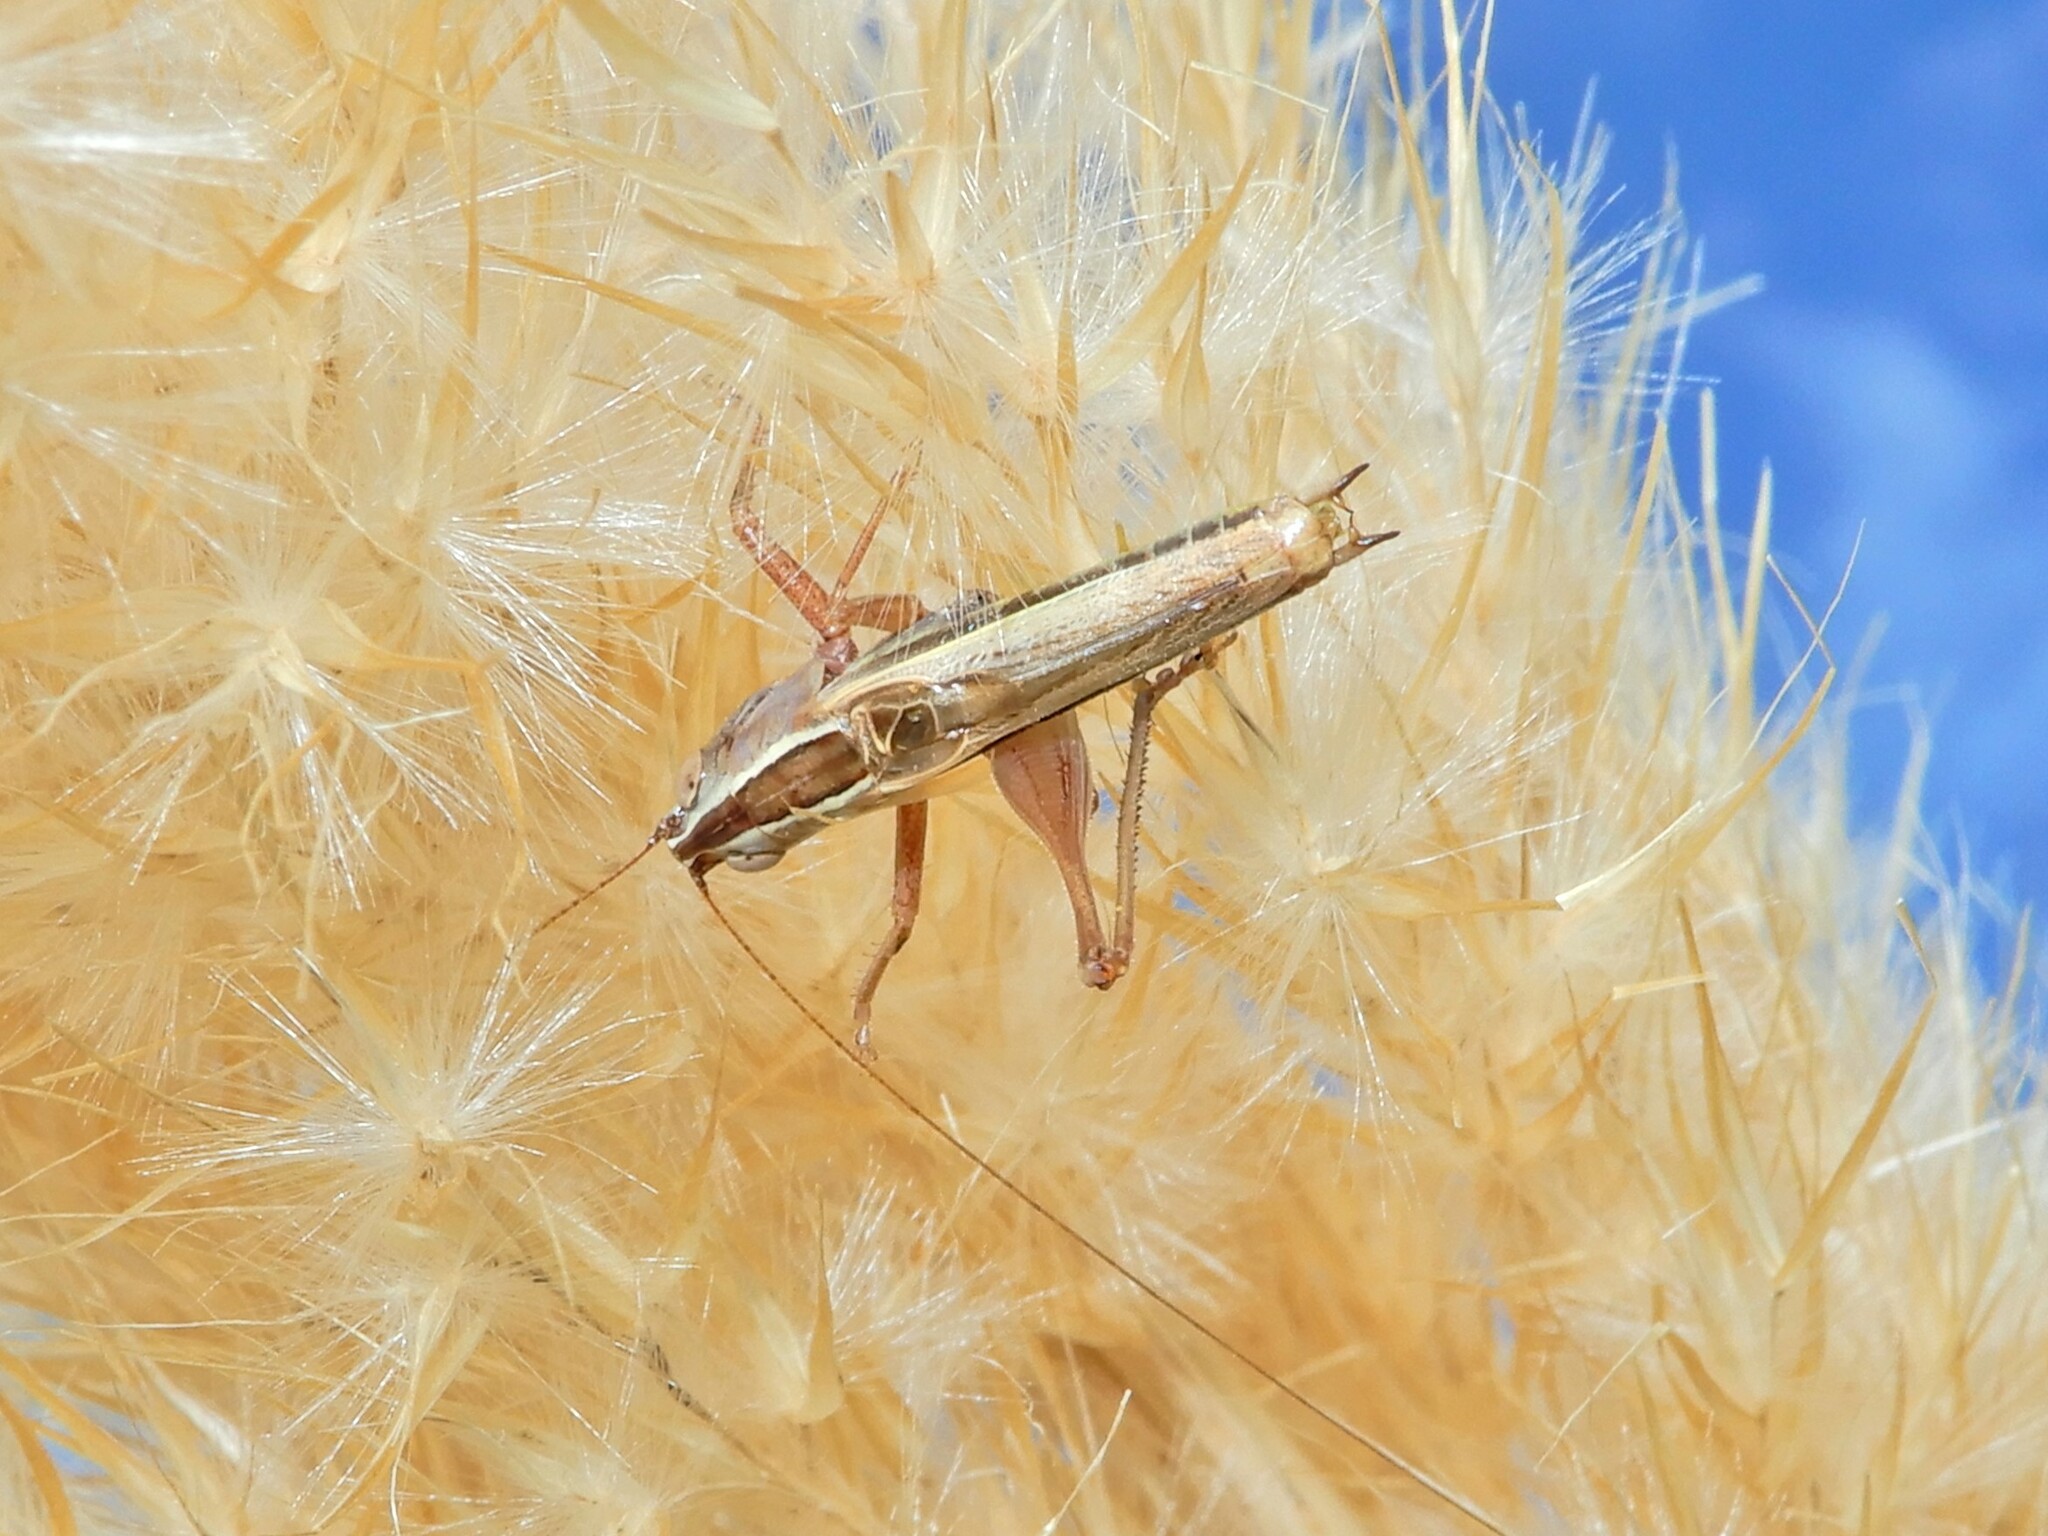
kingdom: Animalia
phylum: Arthropoda
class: Insecta
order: Orthoptera
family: Tettigoniidae
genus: Conocephalus
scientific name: Conocephalus albescens
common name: Whitish meadow katydid
